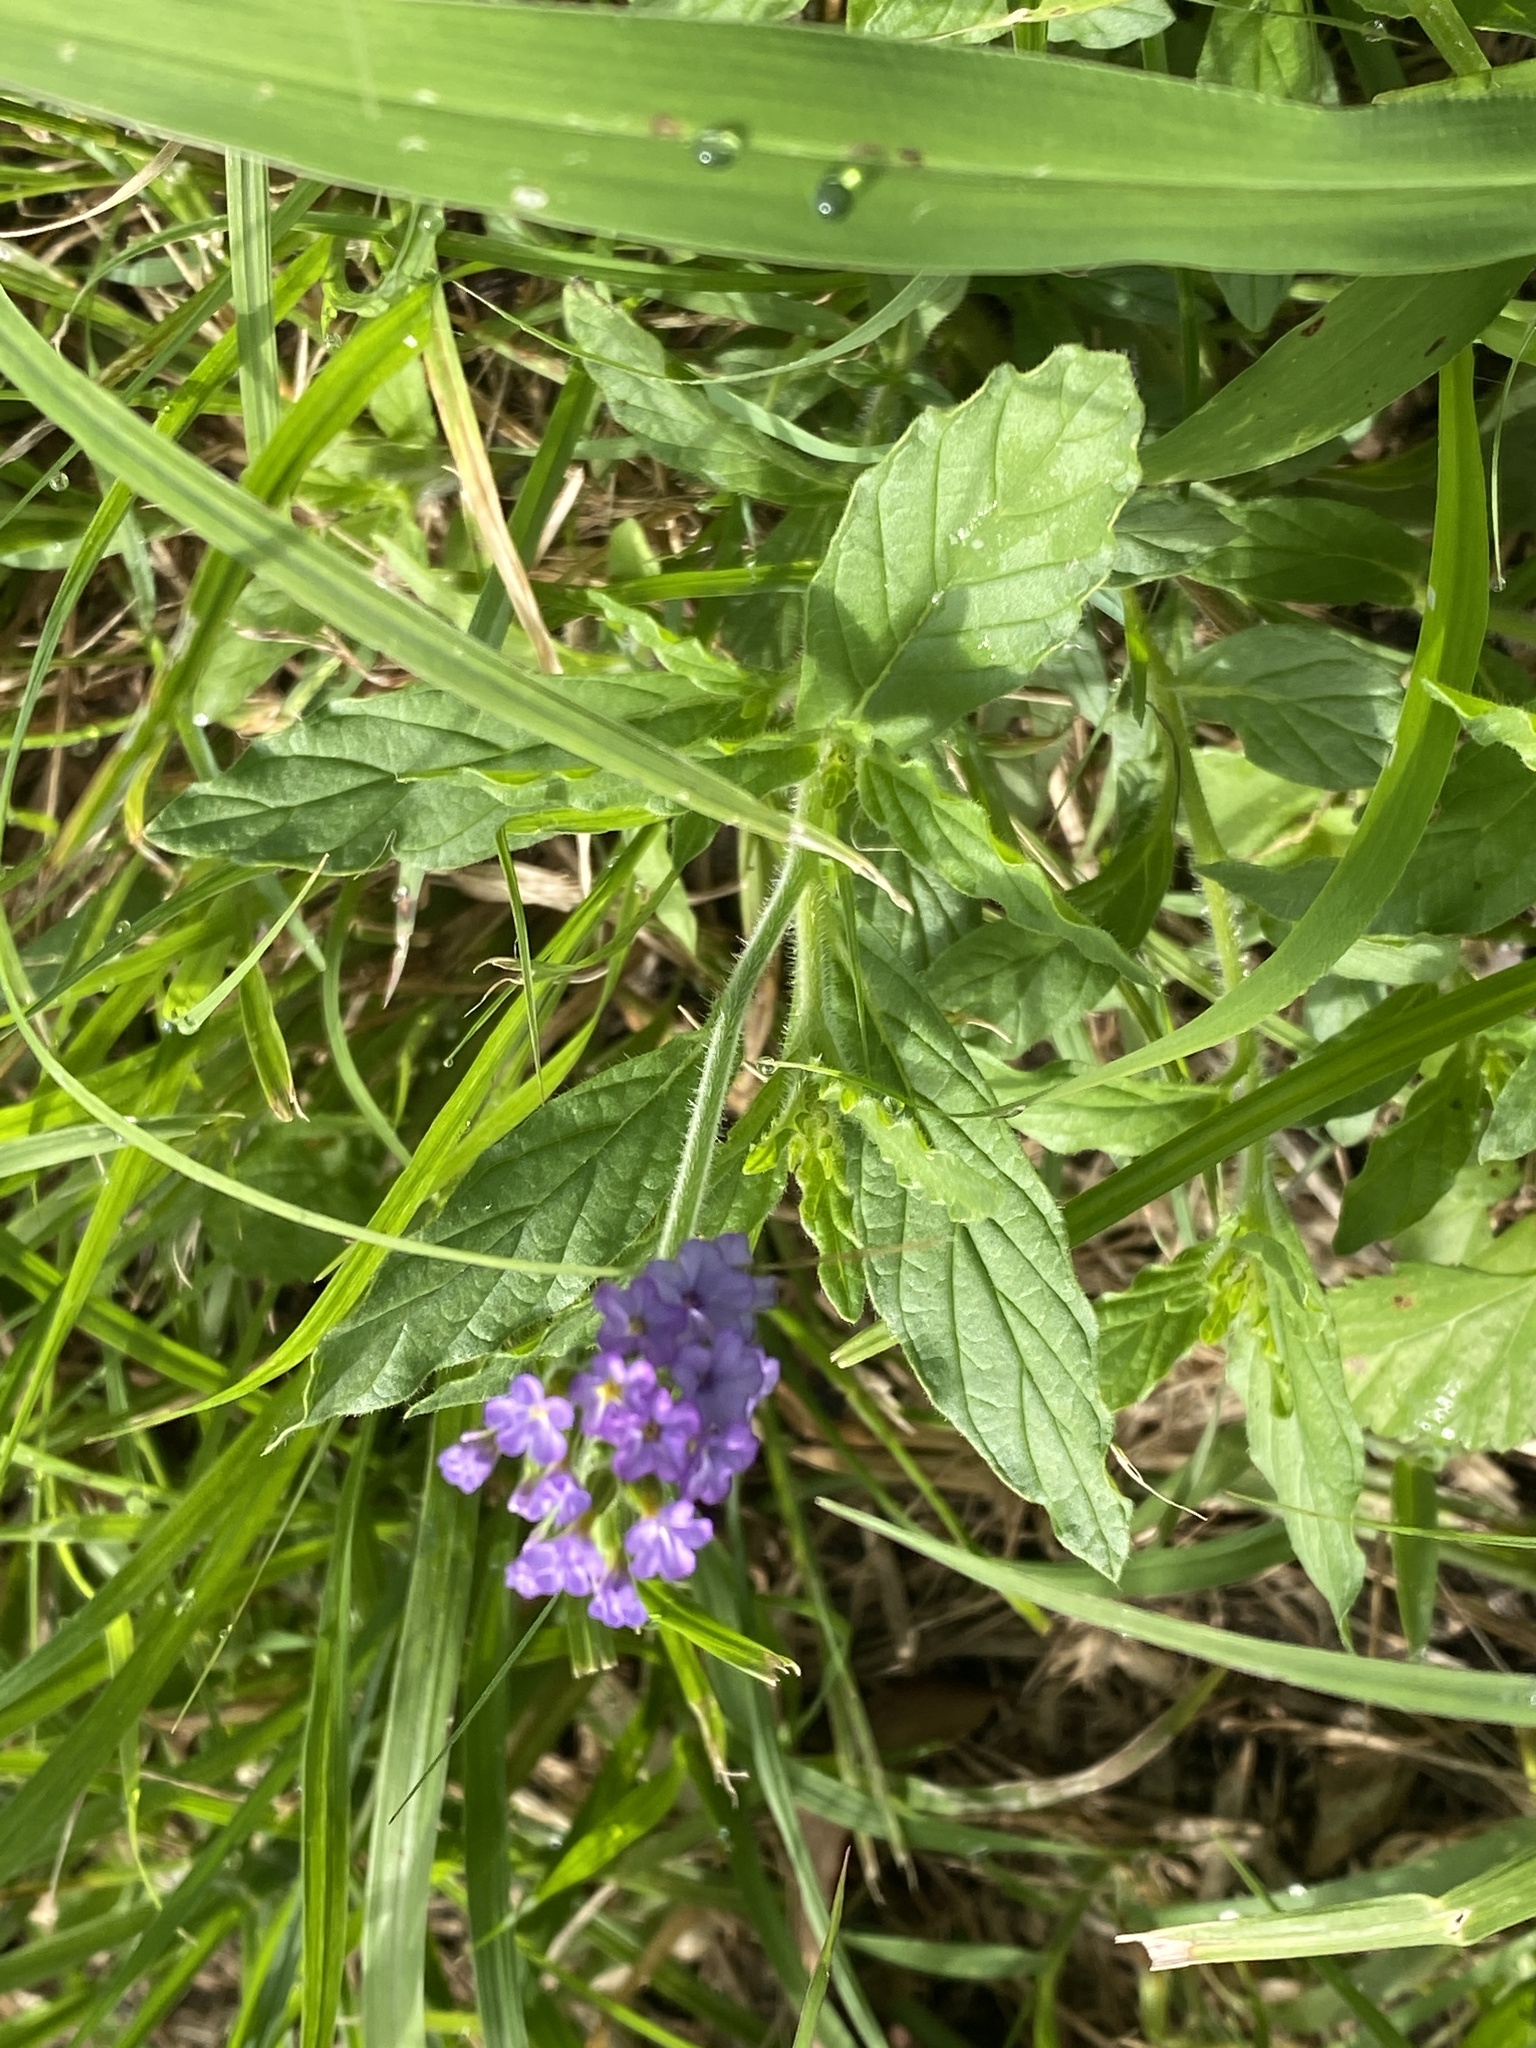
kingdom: Plantae
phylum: Tracheophyta
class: Magnoliopsida
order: Boraginales
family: Heliotropiaceae
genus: Heliotropium
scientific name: Heliotropium amplexicaule
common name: Clasping heliotrope
